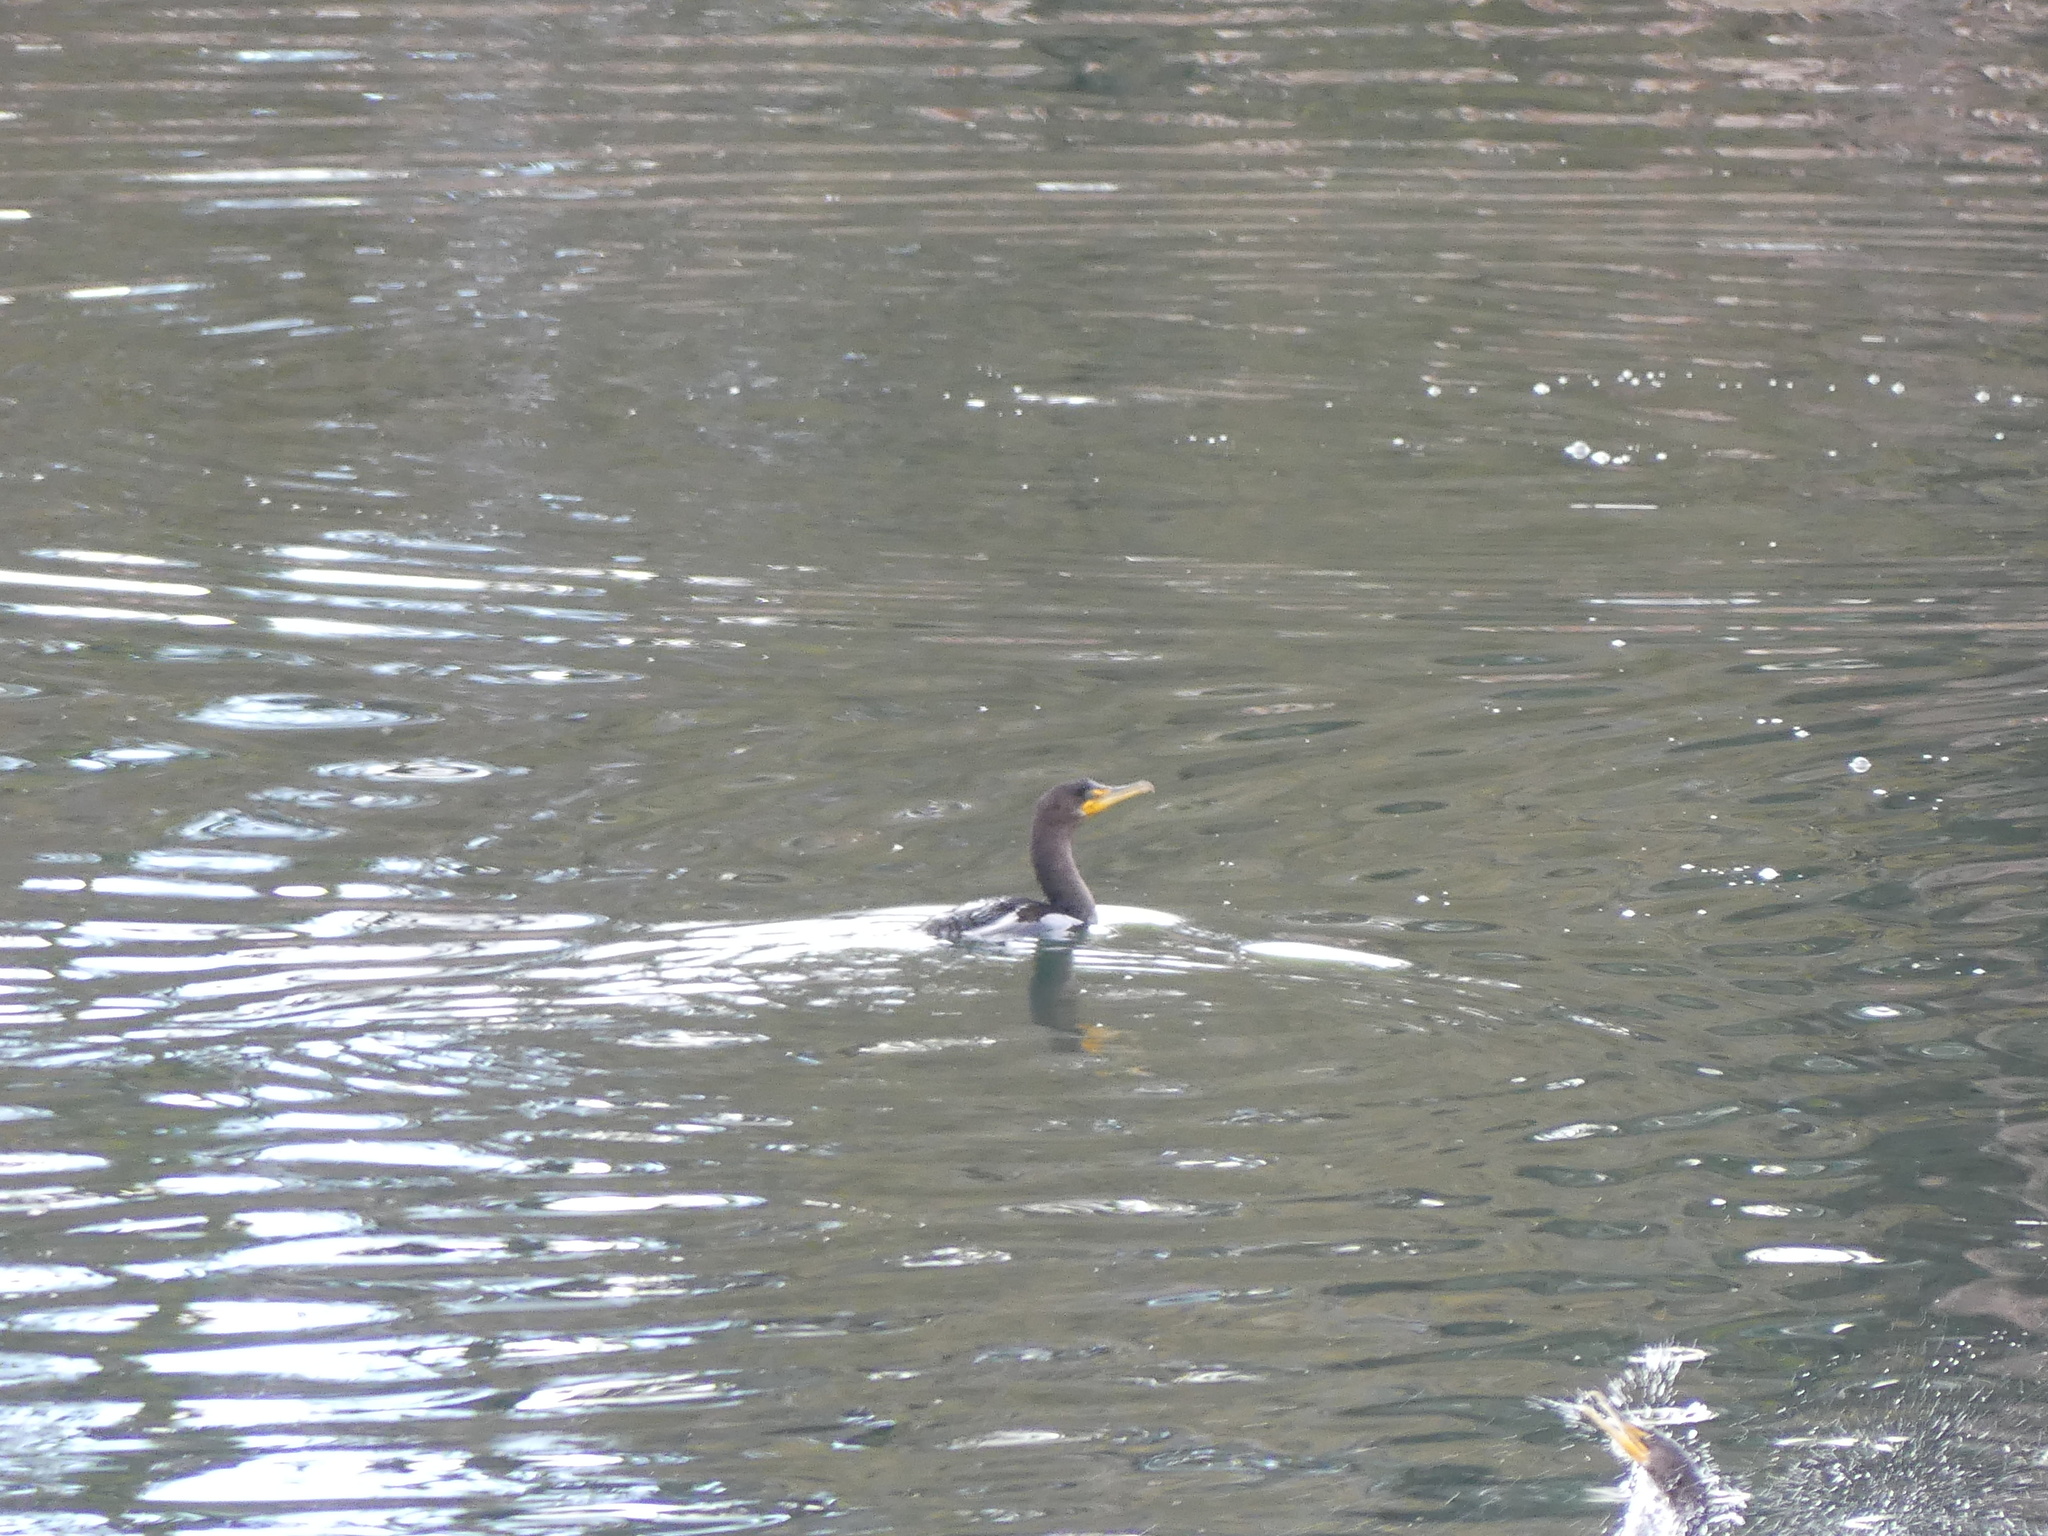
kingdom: Animalia
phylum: Chordata
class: Aves
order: Suliformes
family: Phalacrocoracidae
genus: Phalacrocorax
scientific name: Phalacrocorax auritus
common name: Double-crested cormorant
